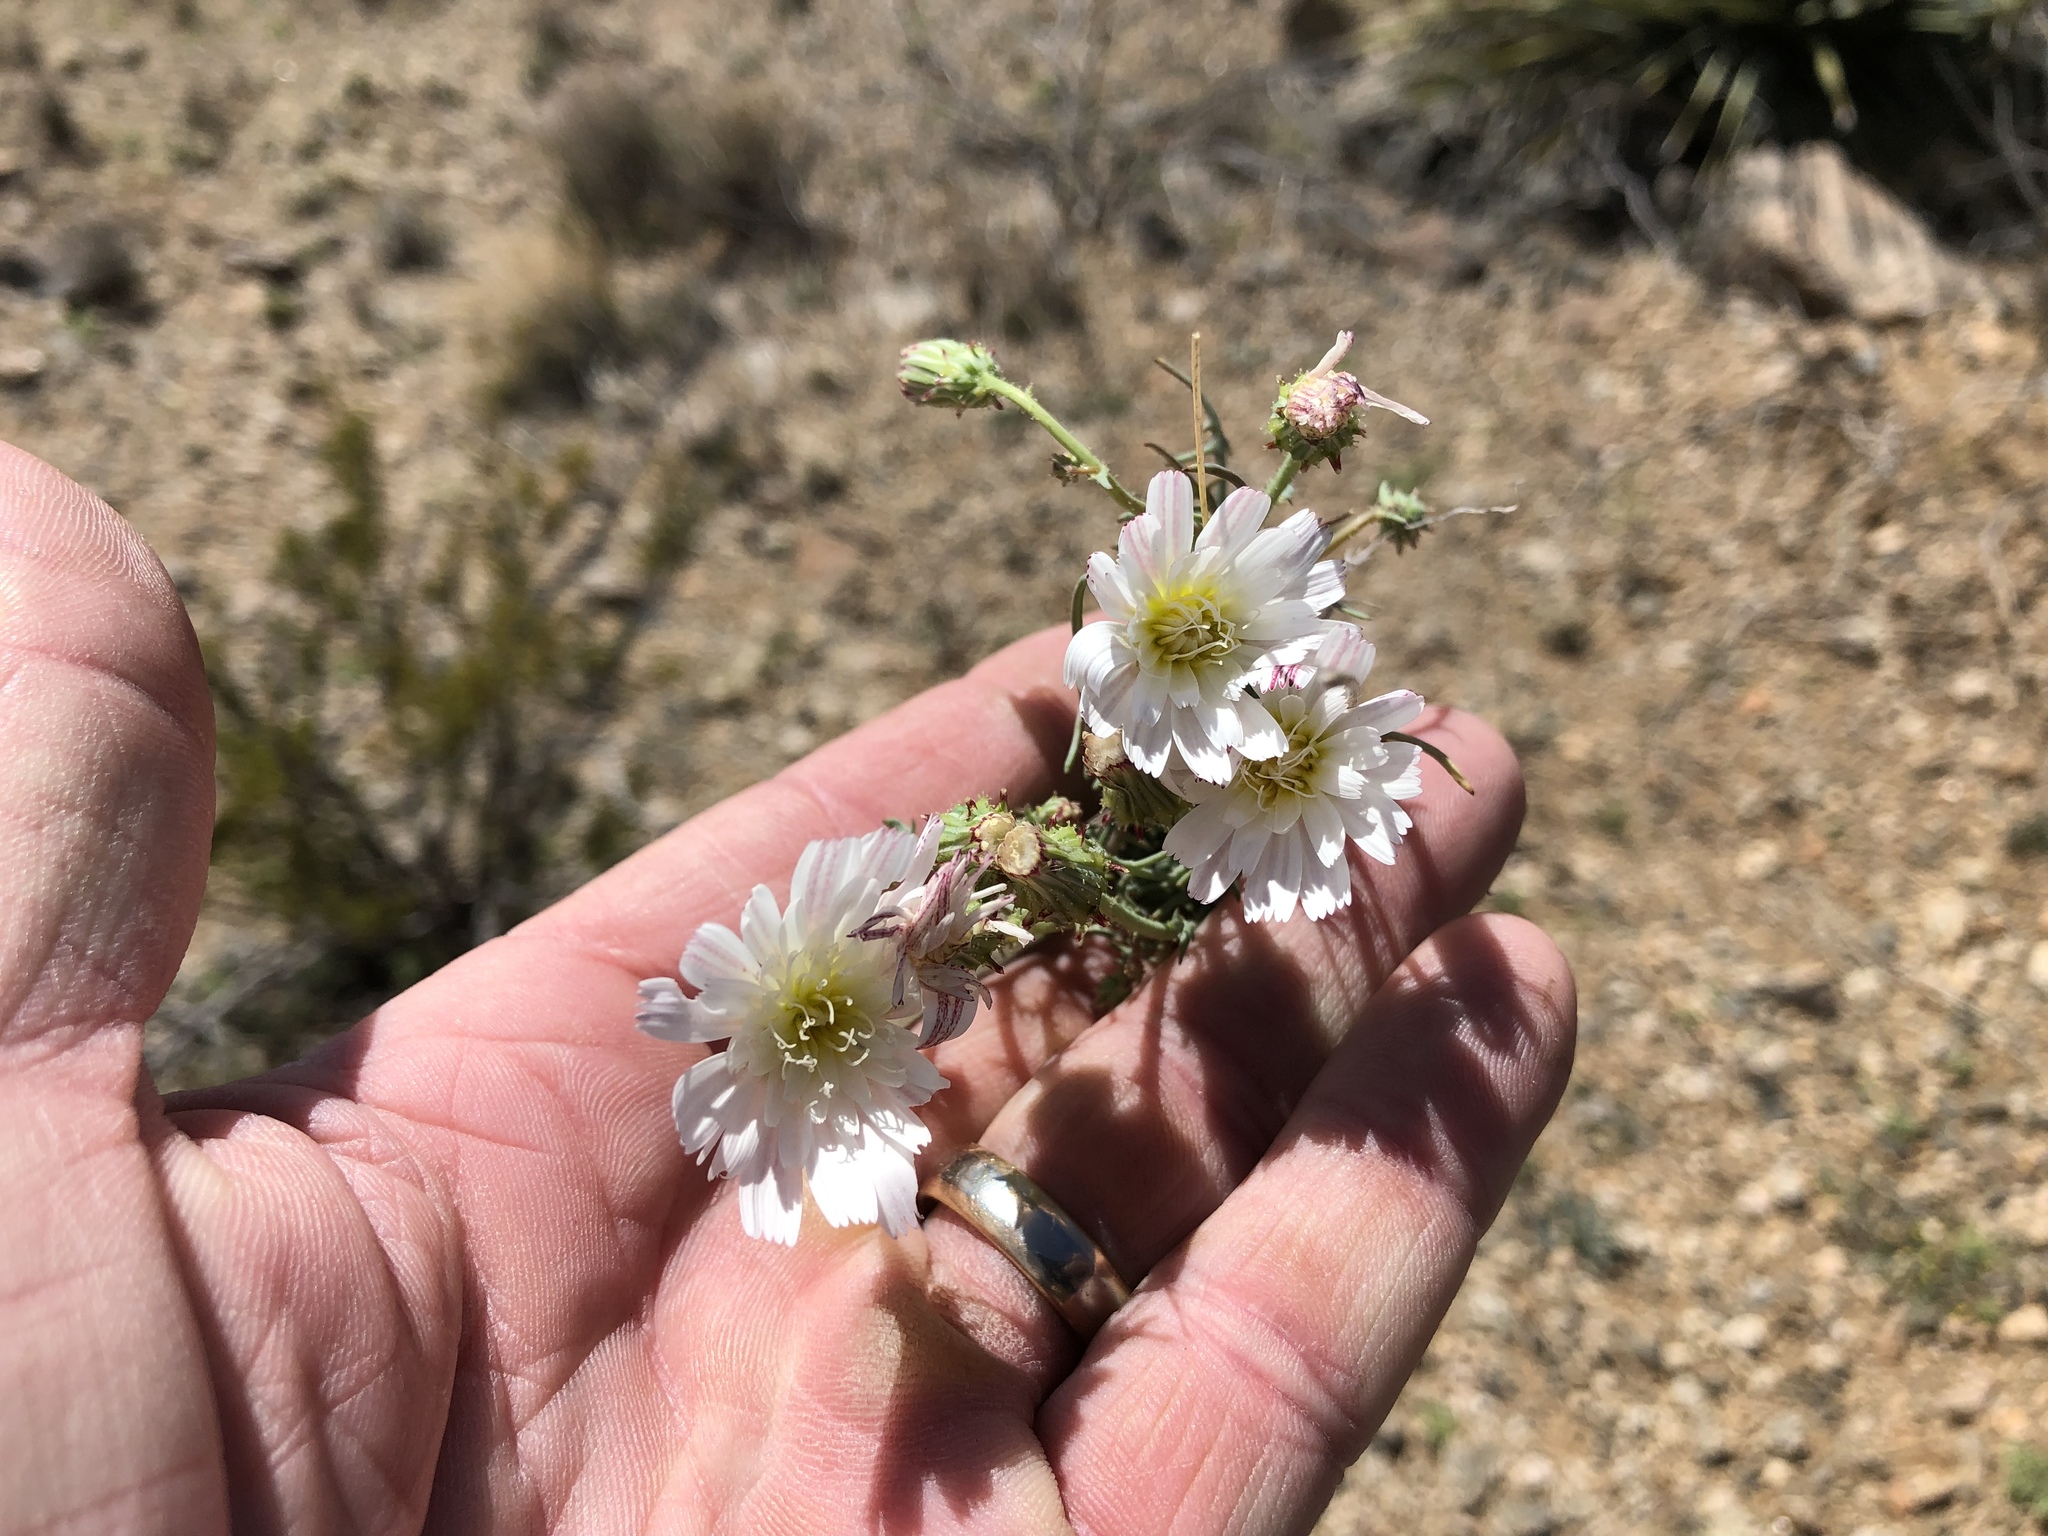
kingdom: Plantae
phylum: Tracheophyta
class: Magnoliopsida
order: Asterales
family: Asteraceae
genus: Calycoseris
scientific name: Calycoseris wrightii
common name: White tackstem
